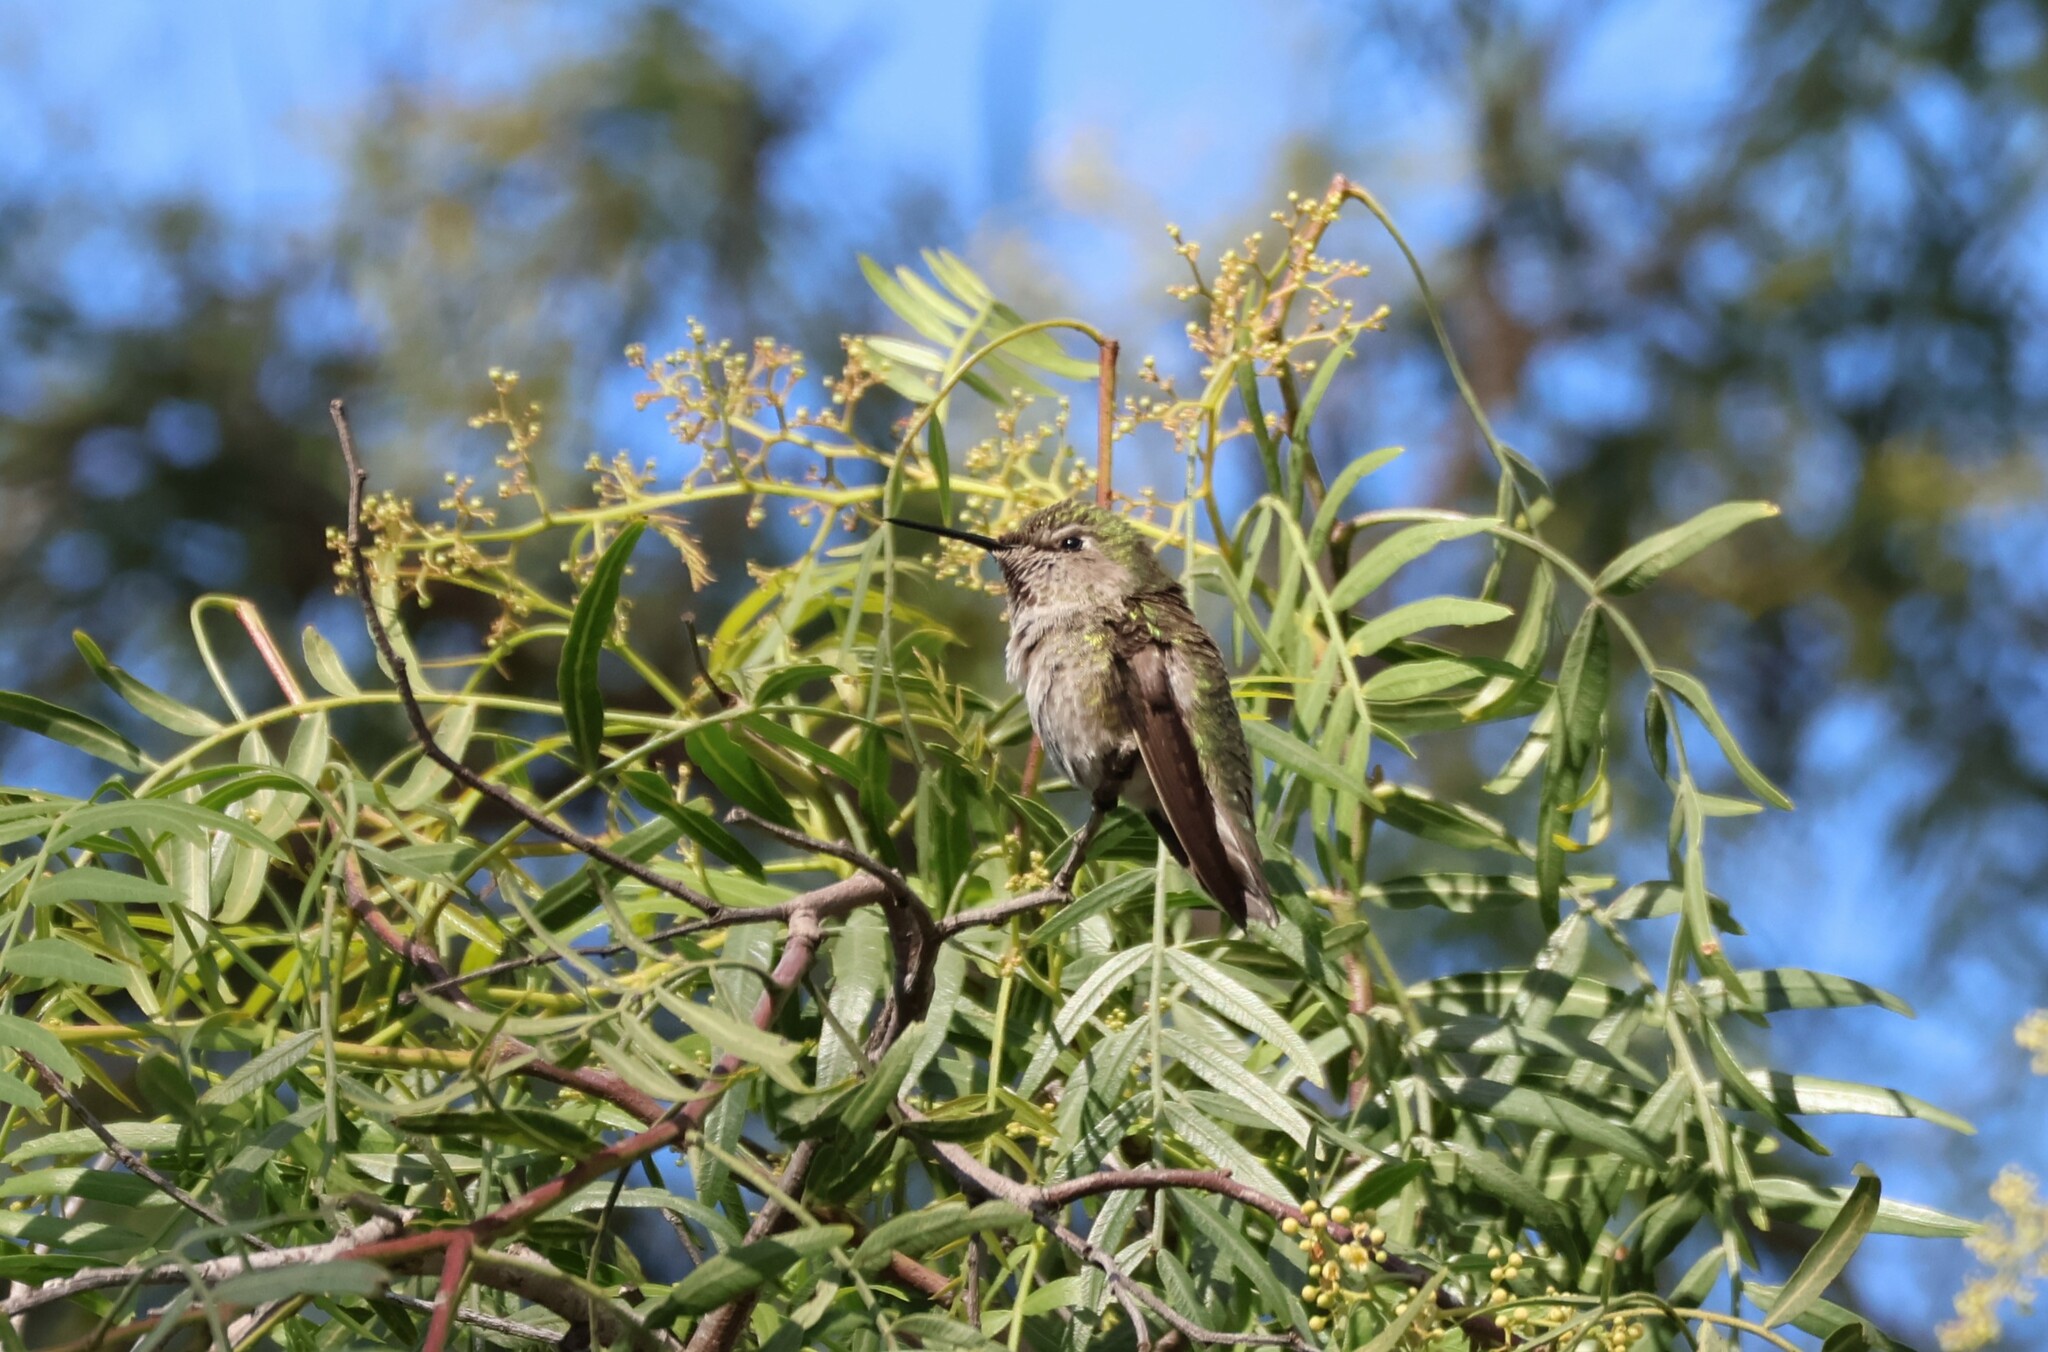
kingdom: Animalia
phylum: Chordata
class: Aves
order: Apodiformes
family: Trochilidae
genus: Calypte
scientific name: Calypte anna
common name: Anna's hummingbird
